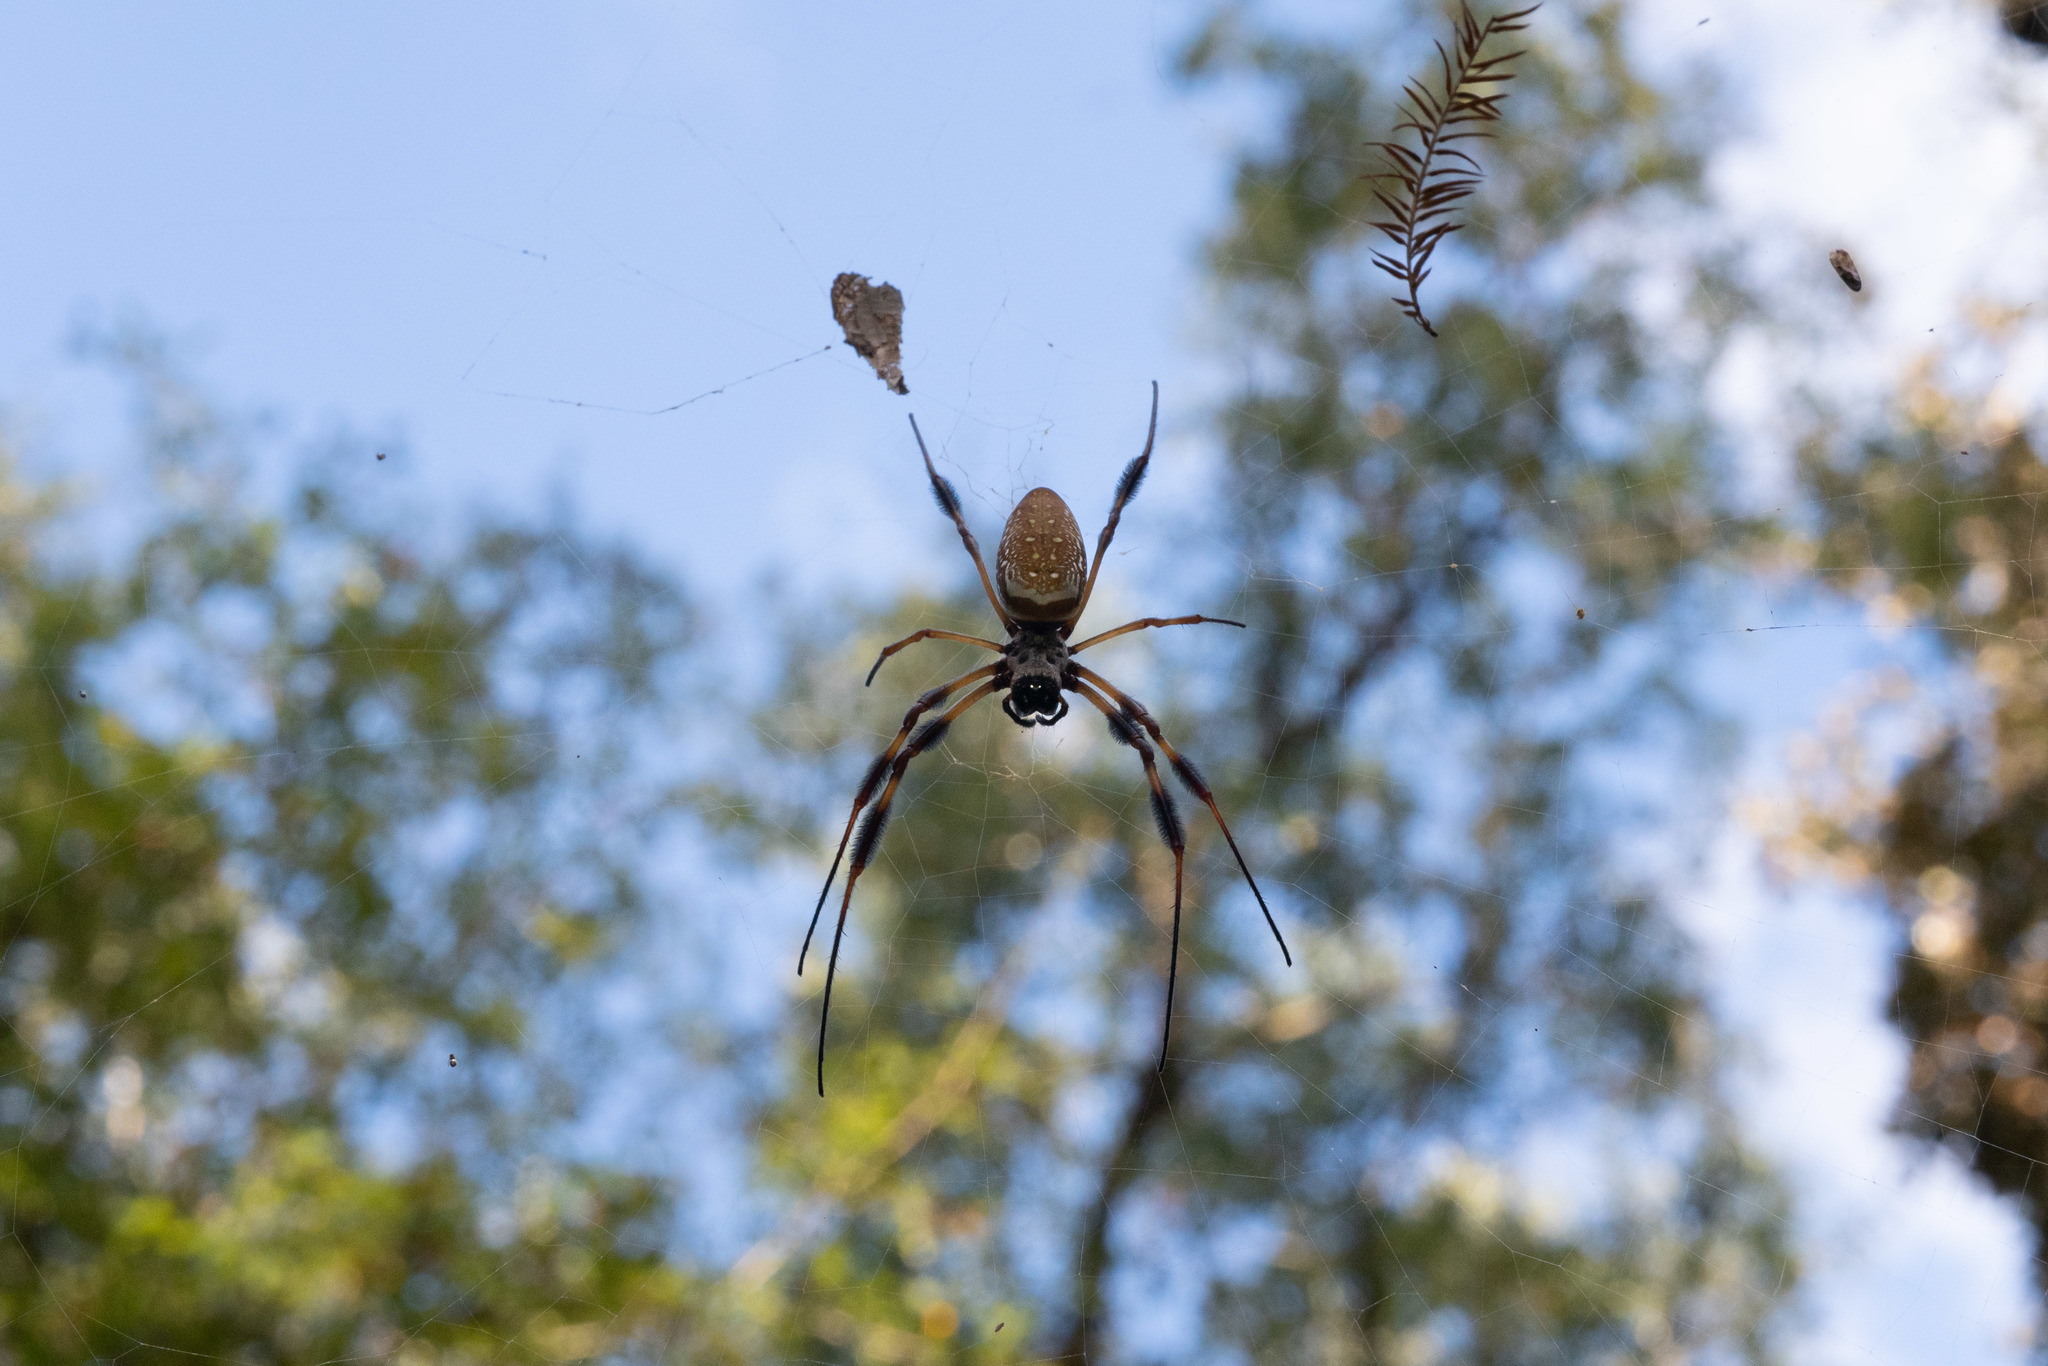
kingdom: Animalia
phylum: Arthropoda
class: Arachnida
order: Araneae
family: Araneidae
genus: Trichonephila
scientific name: Trichonephila clavipes
